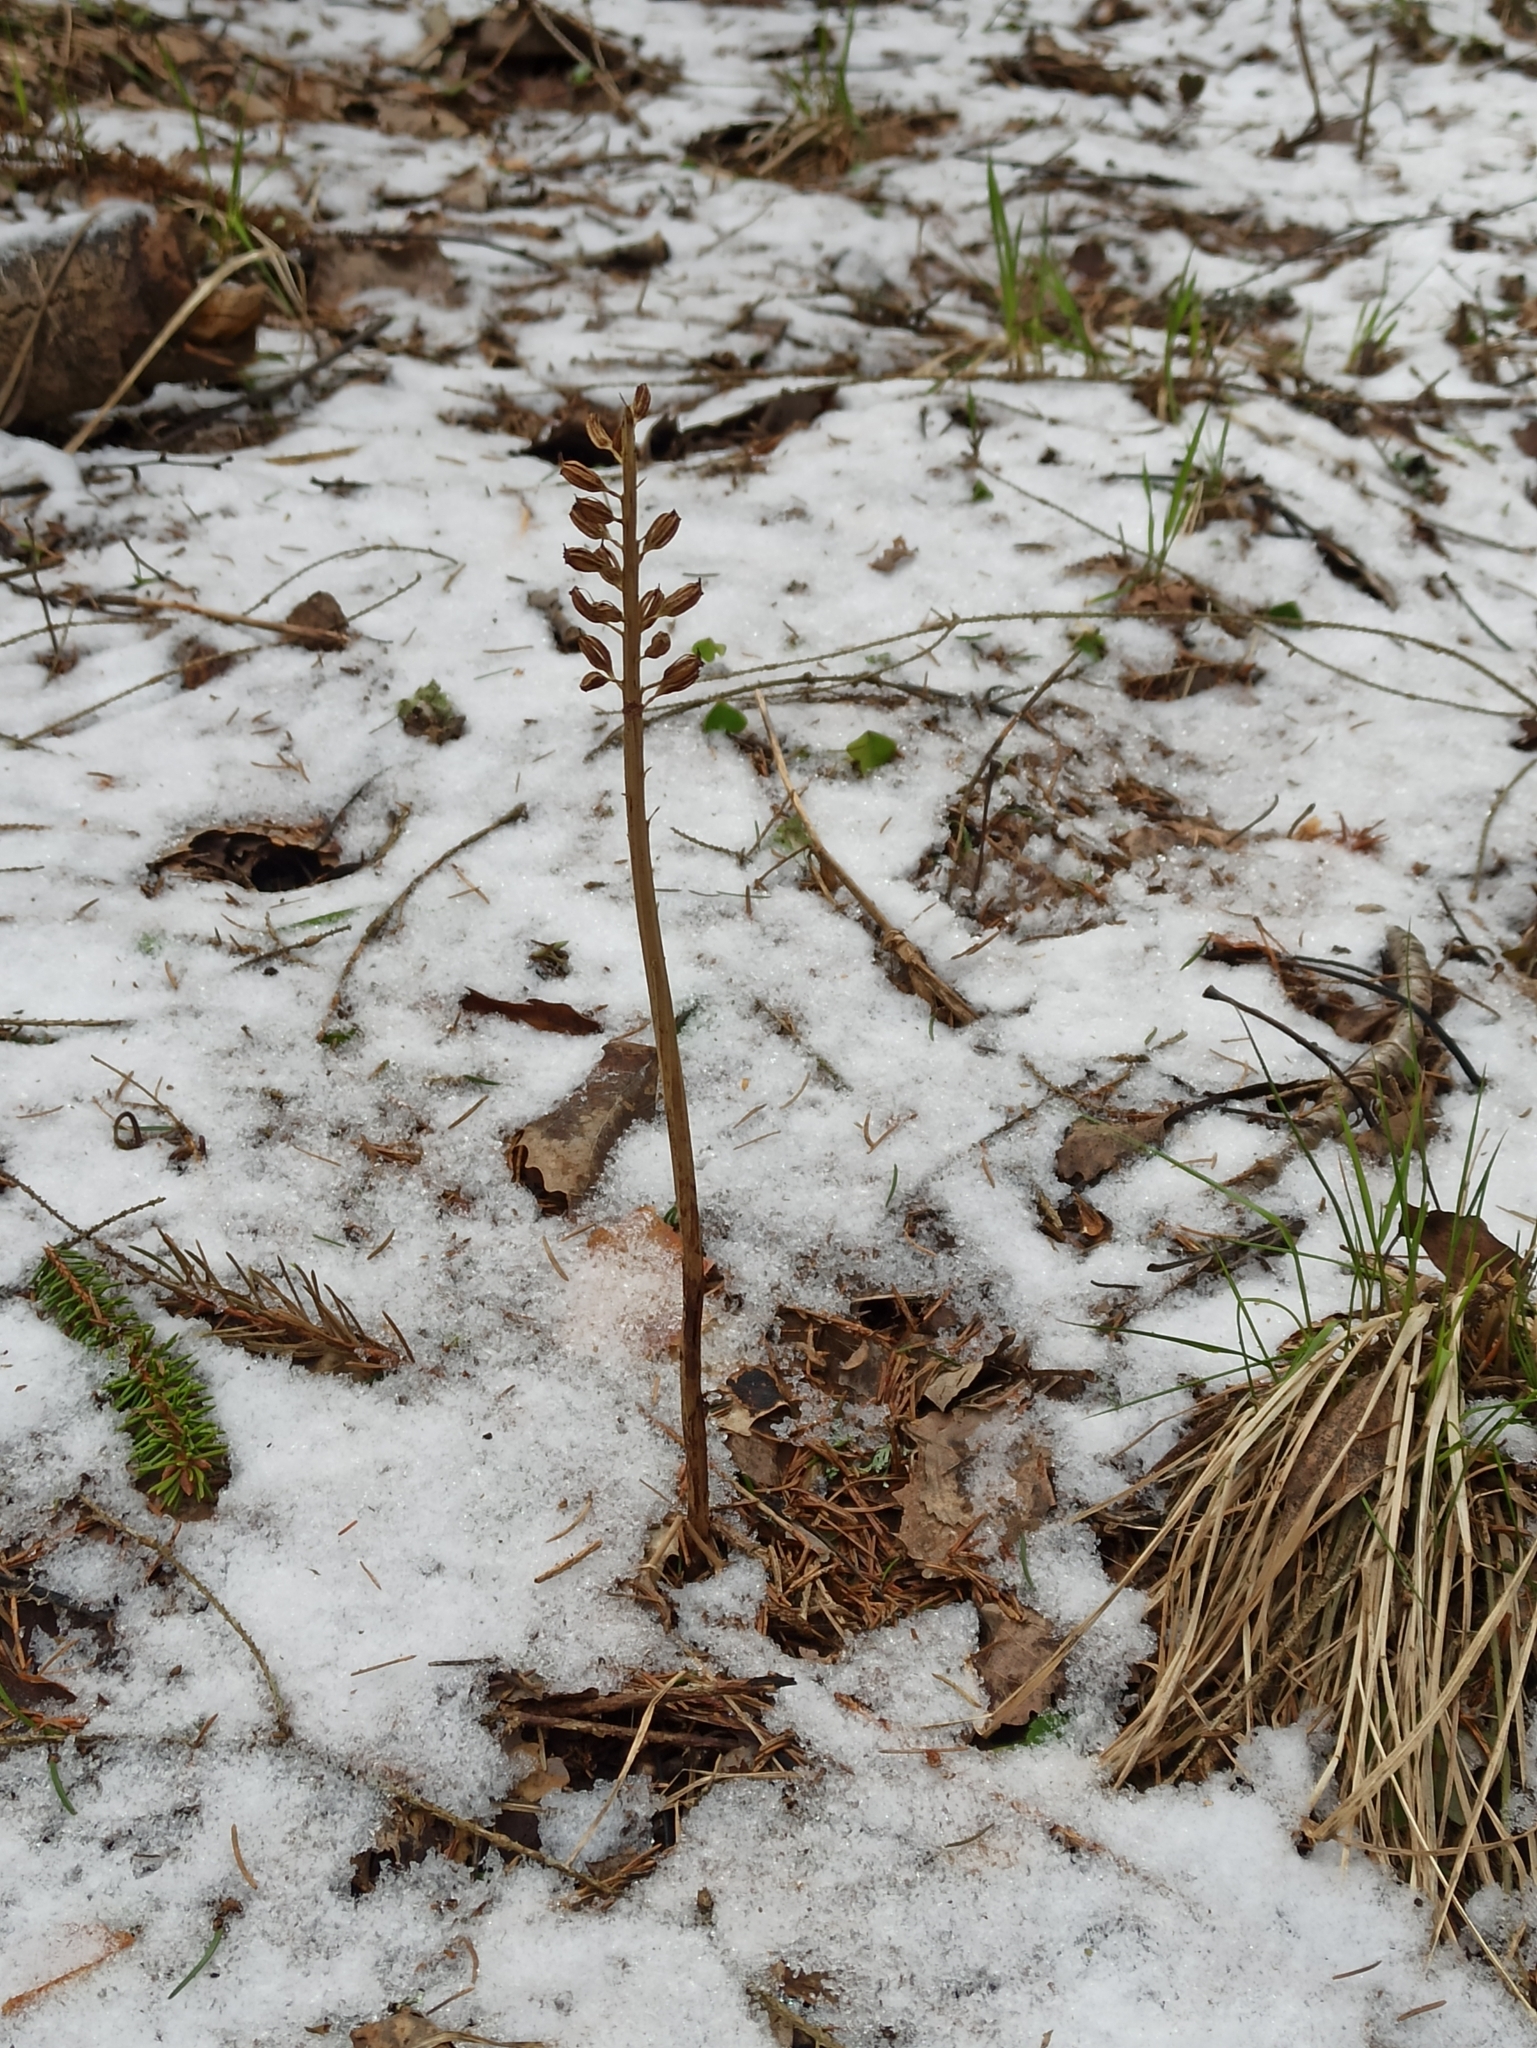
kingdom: Plantae
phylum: Tracheophyta
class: Liliopsida
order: Asparagales
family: Orchidaceae
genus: Neottia
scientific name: Neottia nidus-avis
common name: Bird's-nest orchid
